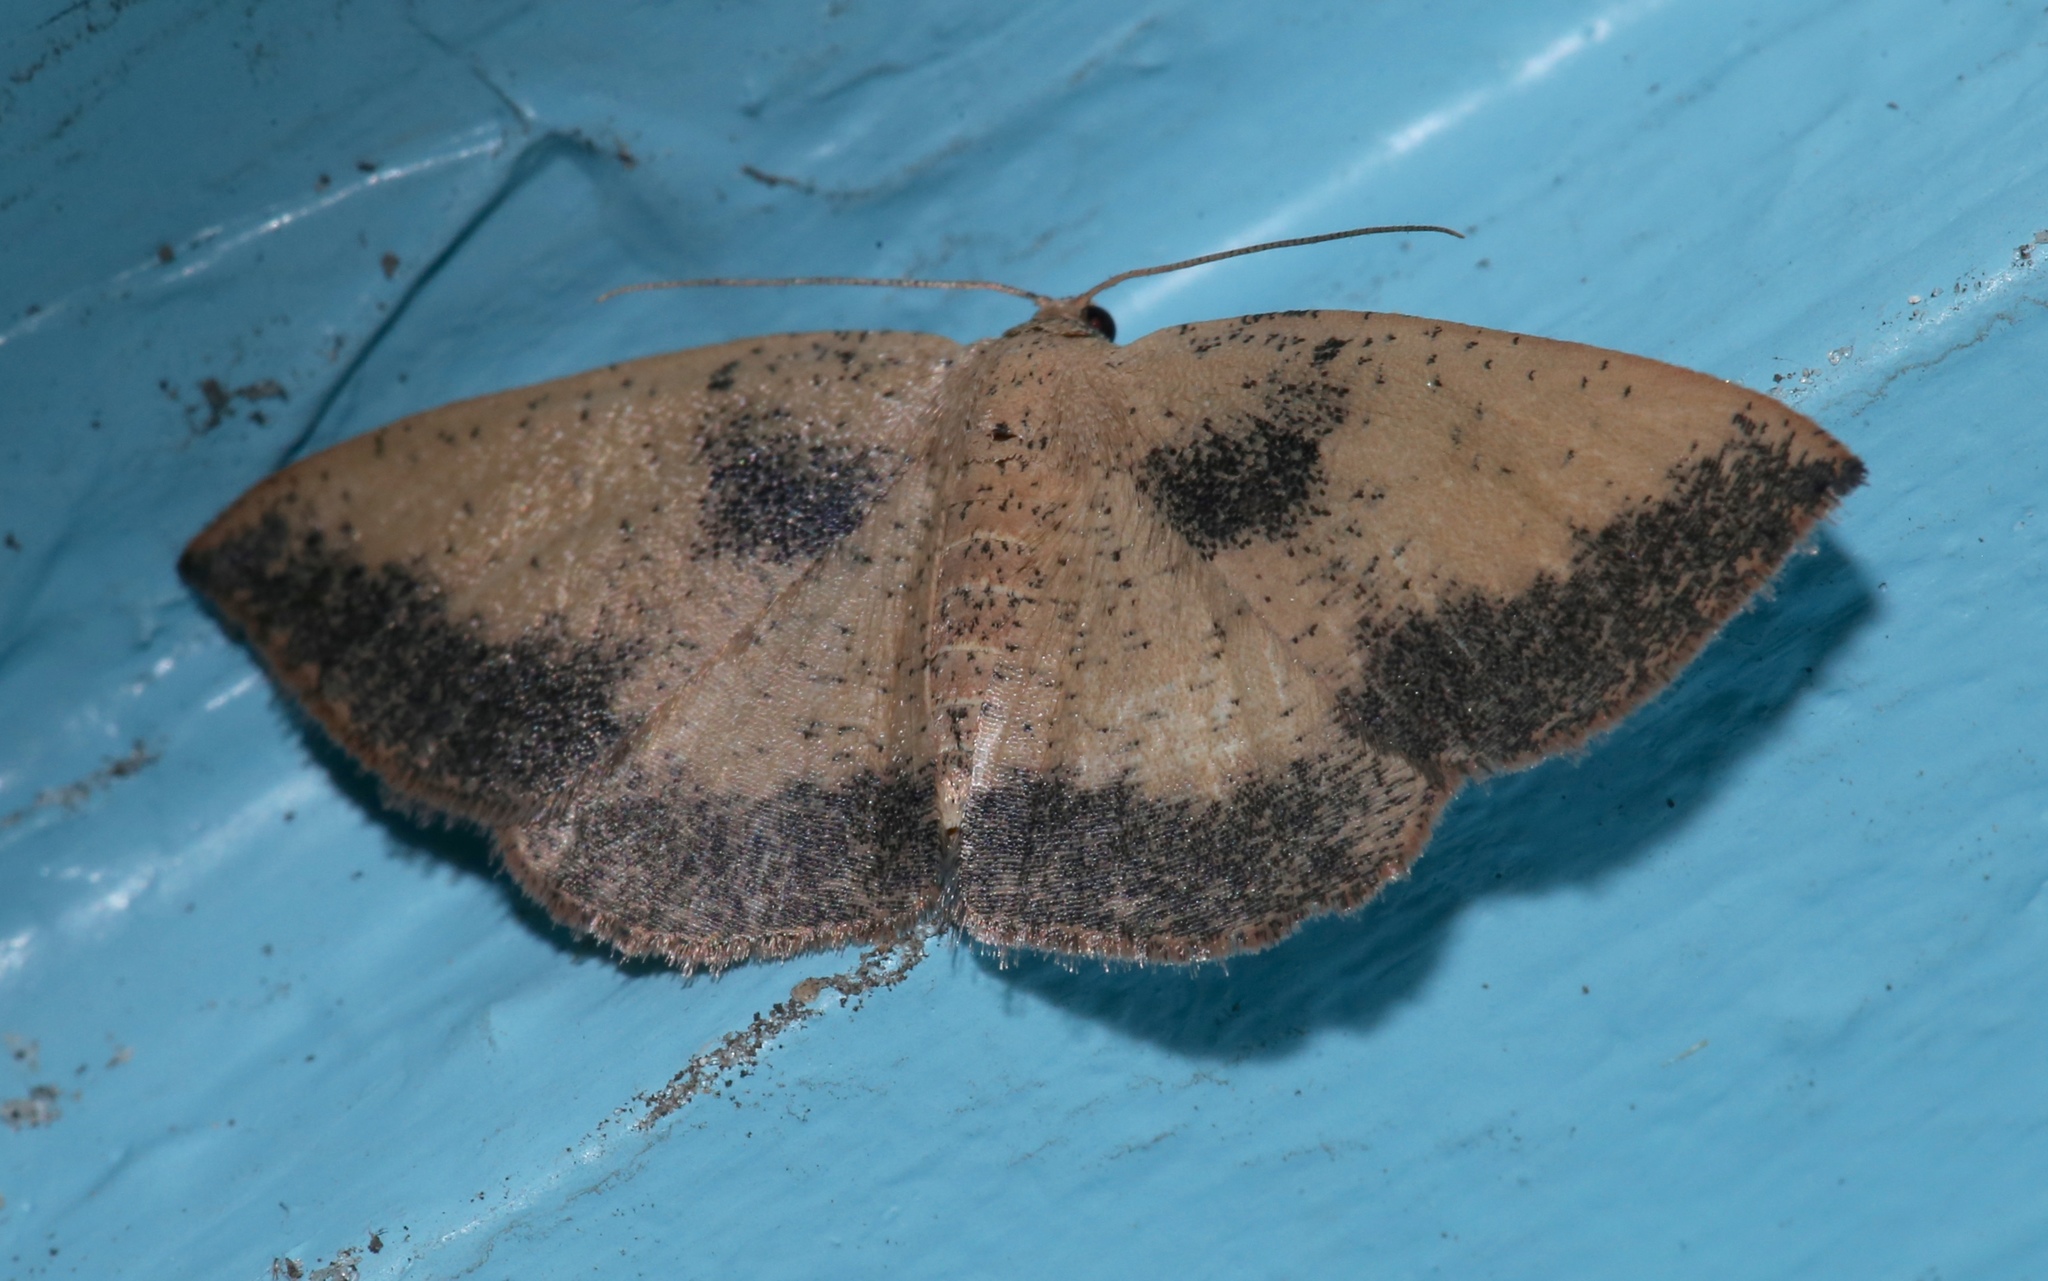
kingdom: Animalia
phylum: Arthropoda
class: Insecta
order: Lepidoptera
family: Geometridae
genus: Episemasia
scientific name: Episemasia solitaria
